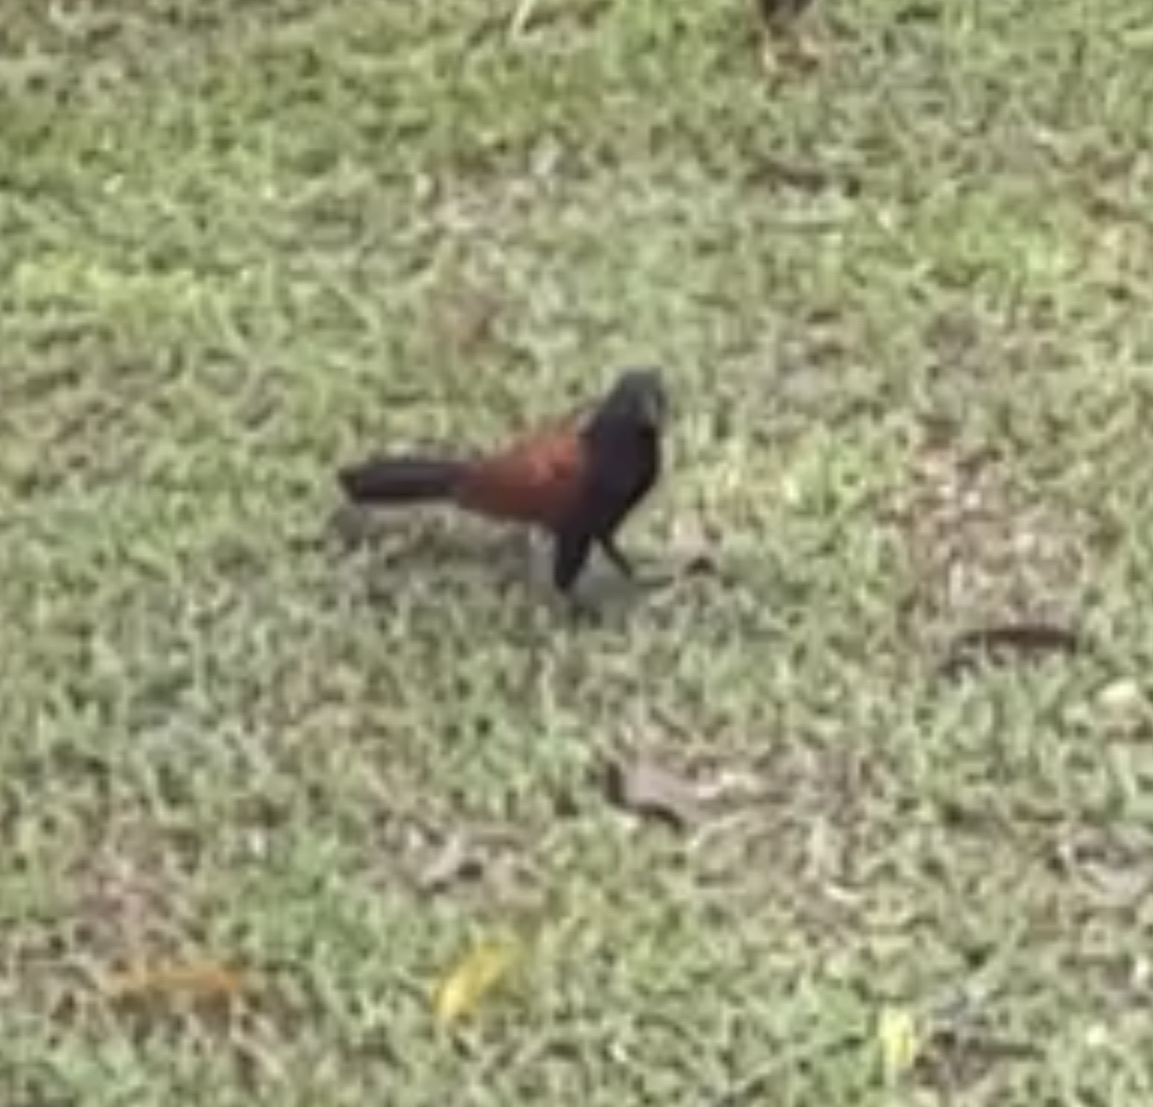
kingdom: Animalia
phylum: Chordata
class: Aves
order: Cuculiformes
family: Cuculidae
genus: Centropus
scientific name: Centropus sinensis
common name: Greater coucal
